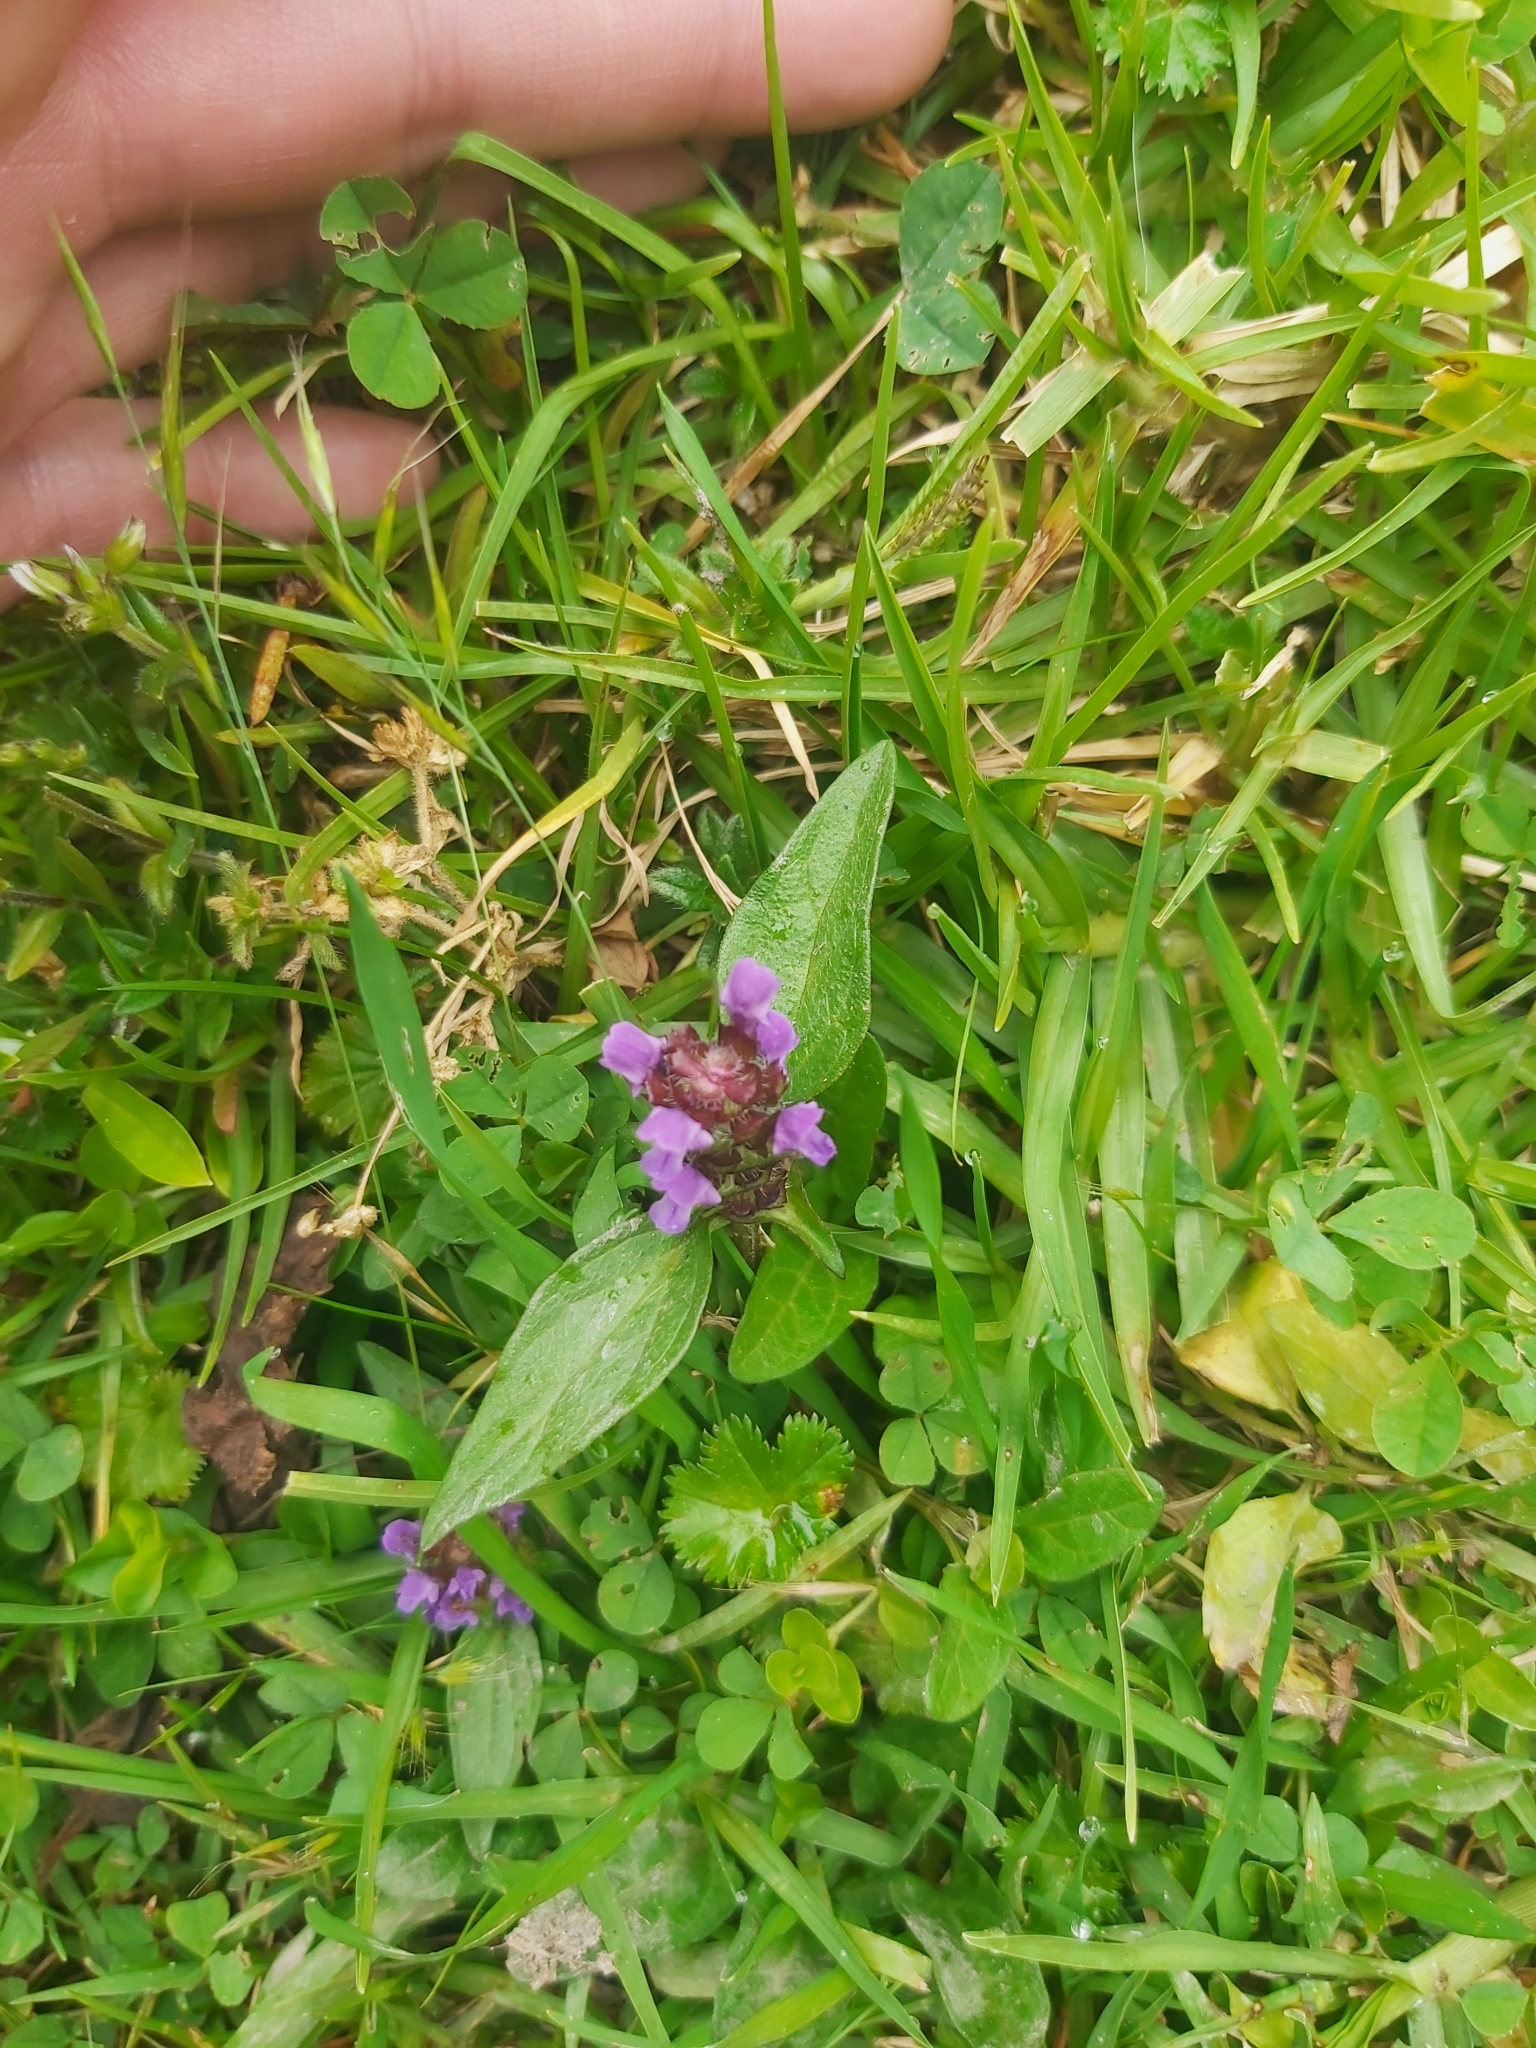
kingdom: Plantae
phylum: Tracheophyta
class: Magnoliopsida
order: Lamiales
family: Lamiaceae
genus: Prunella
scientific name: Prunella vulgaris
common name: Heal-all
